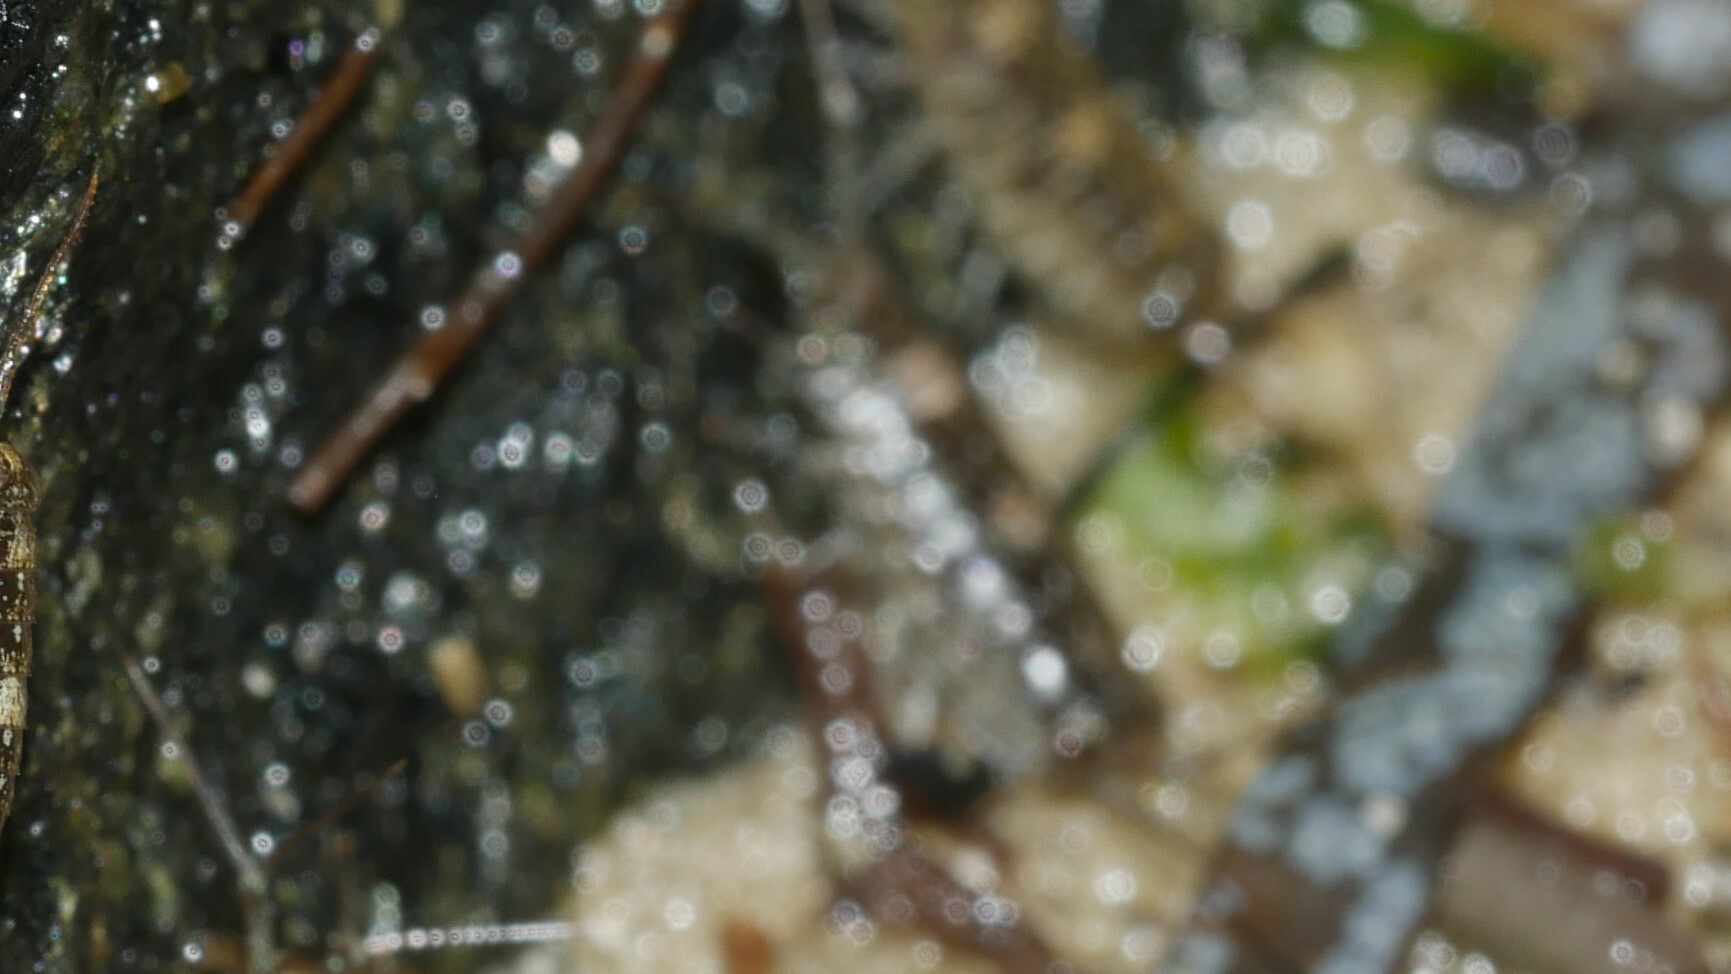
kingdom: Animalia
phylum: Arthropoda
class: Malacostraca
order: Isopoda
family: Ligiidae
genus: Ligia
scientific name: Ligia exotica
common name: Wharf roach
